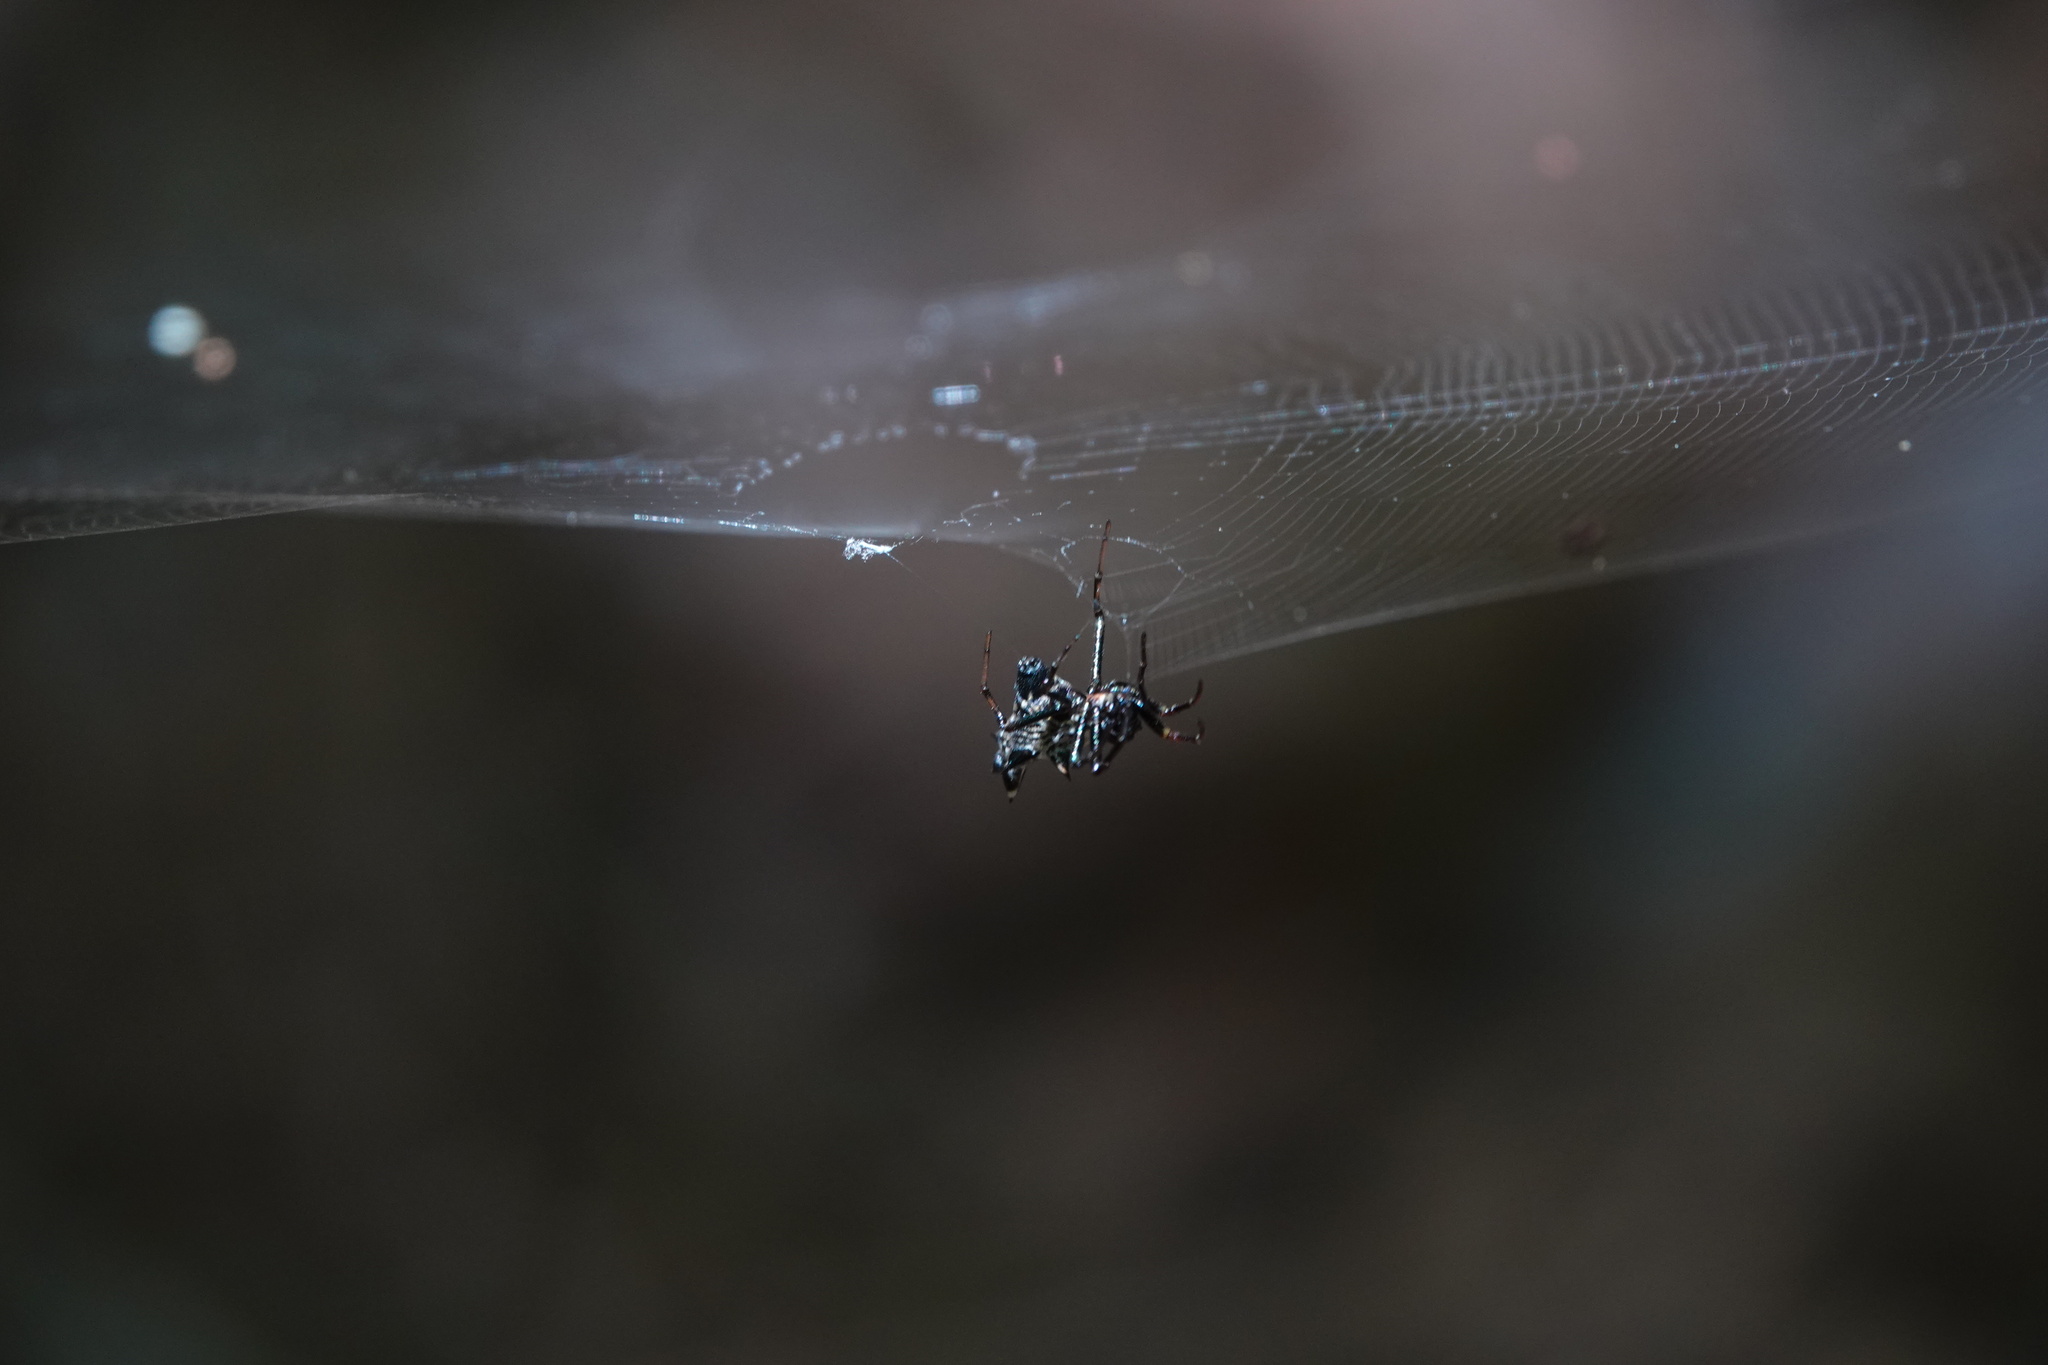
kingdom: Animalia
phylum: Arthropoda
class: Arachnida
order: Araneae
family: Araneidae
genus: Micrathena
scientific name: Micrathena gracilis
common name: Orb weavers
